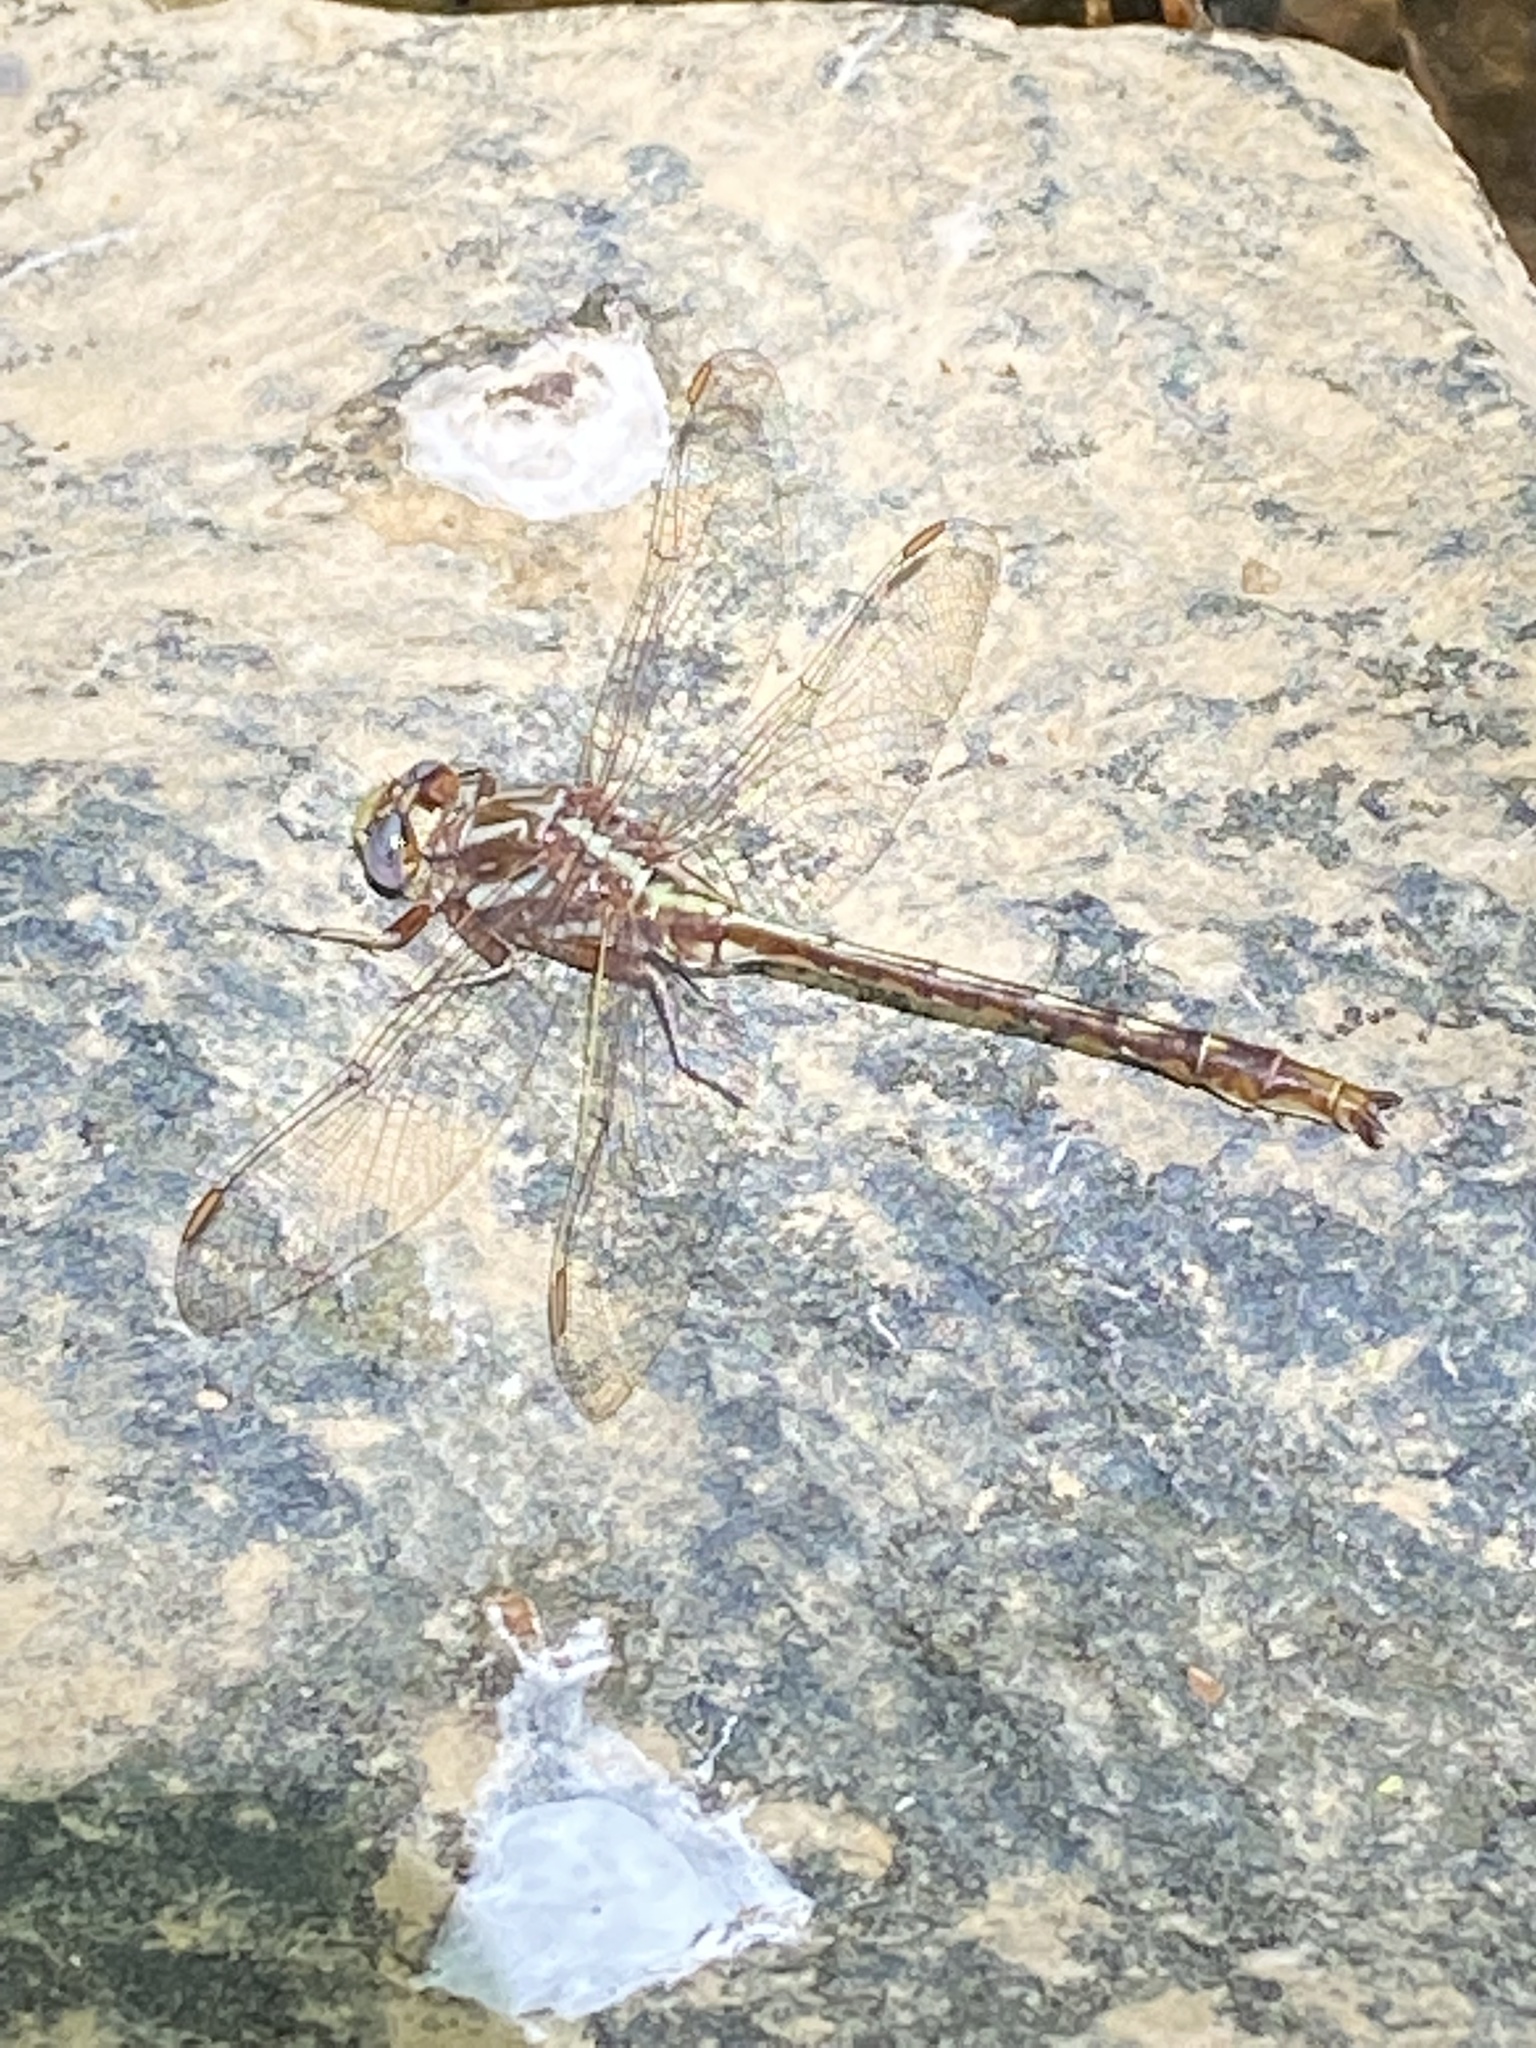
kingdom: Animalia
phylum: Arthropoda
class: Insecta
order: Odonata
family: Gomphidae
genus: Phanogomphus
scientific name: Phanogomphus lividus
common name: Ashy clubtail
